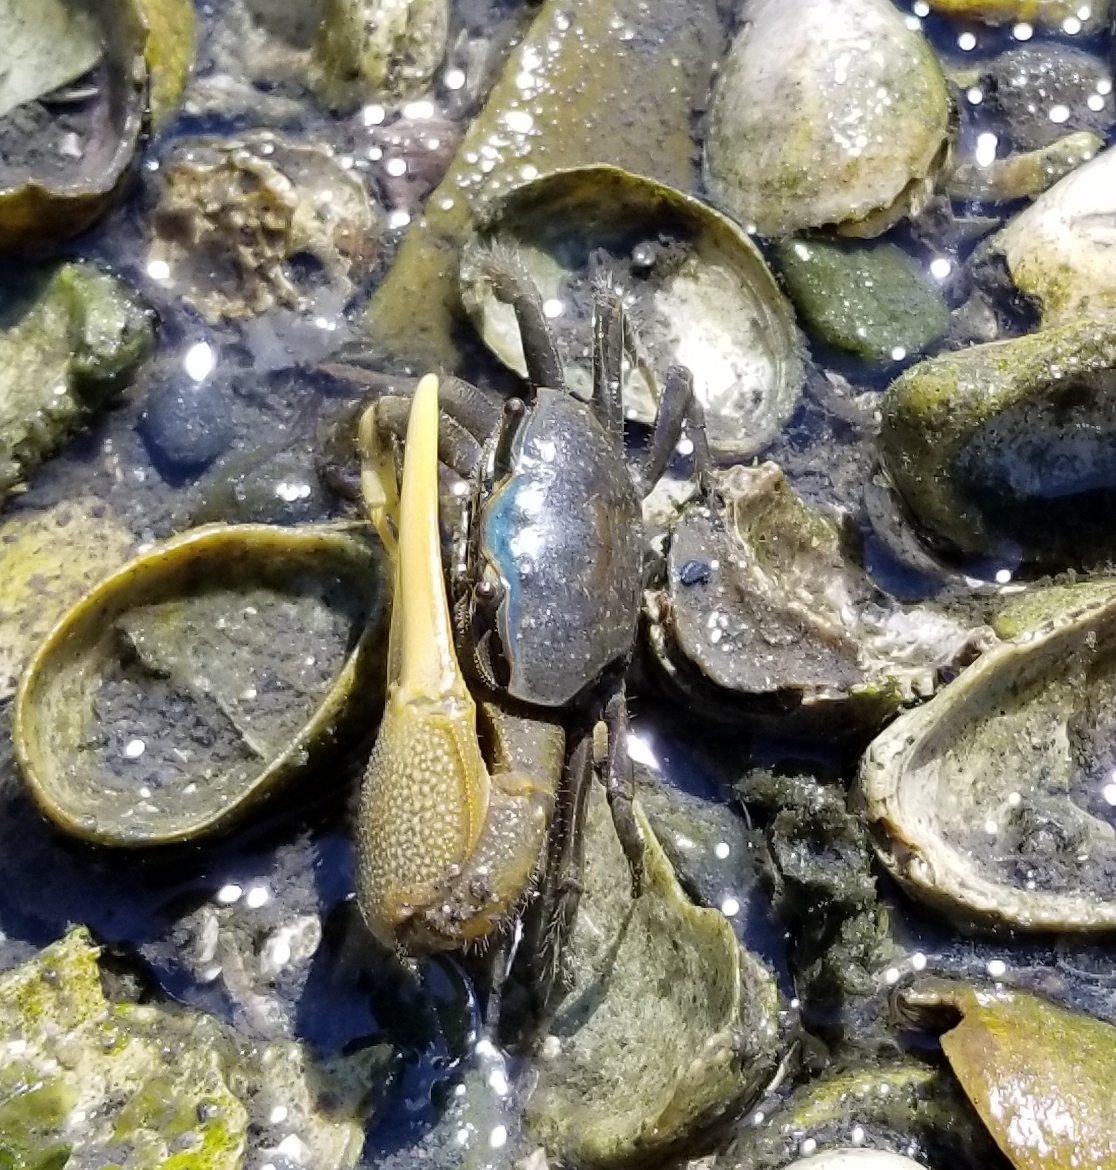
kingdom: Animalia
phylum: Arthropoda
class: Malacostraca
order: Decapoda
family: Ocypodidae
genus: Leptuca
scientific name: Leptuca pugilator
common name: Atlantic sand fiddler crab
